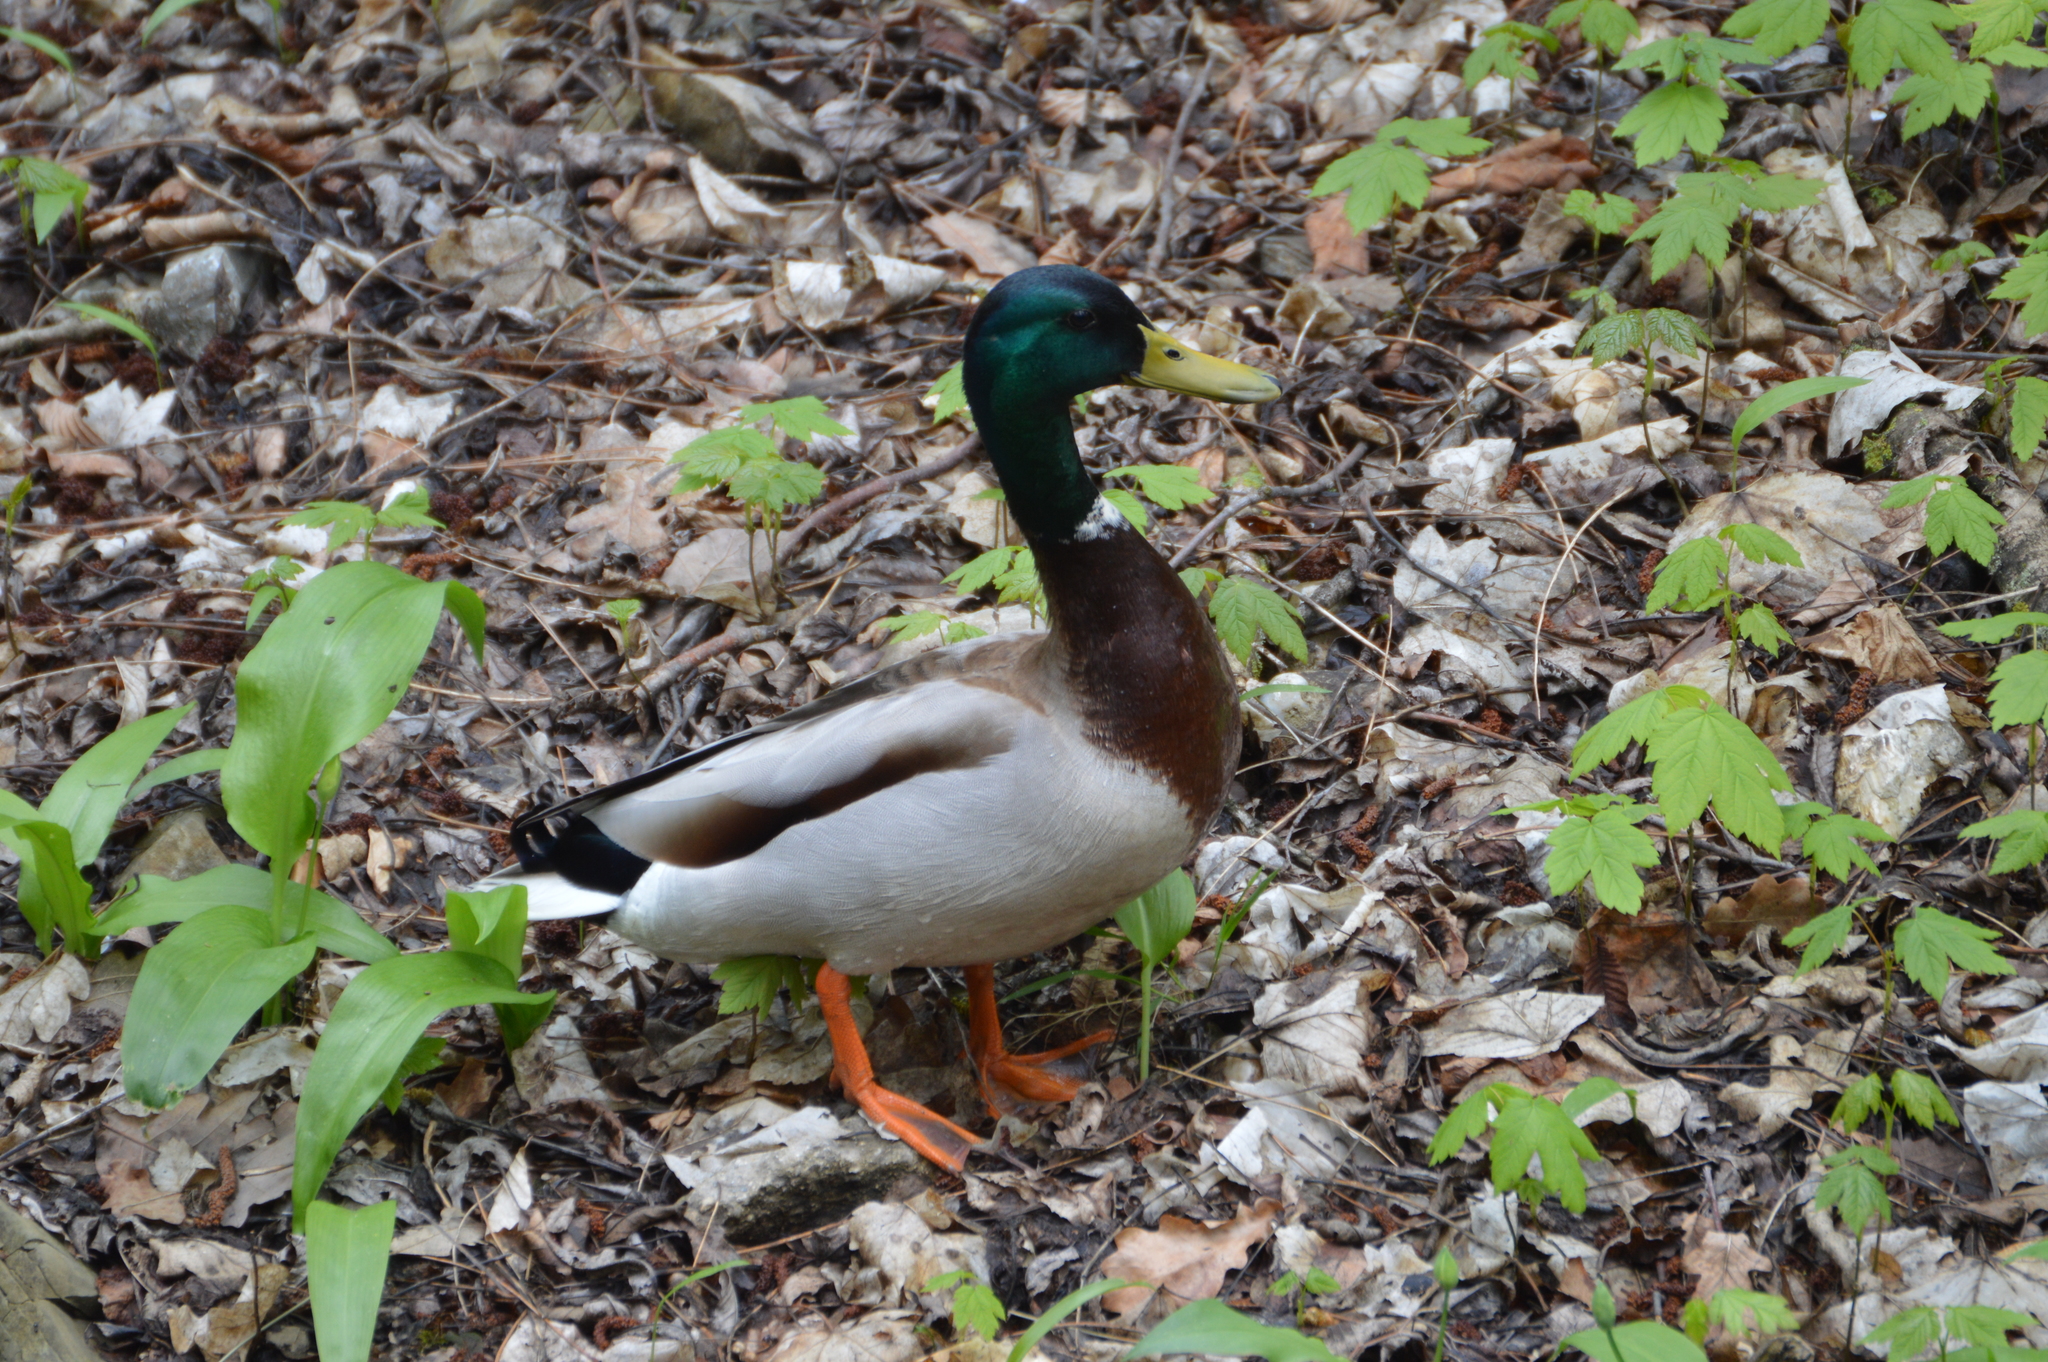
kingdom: Animalia
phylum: Chordata
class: Aves
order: Anseriformes
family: Anatidae
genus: Anas
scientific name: Anas platyrhynchos
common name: Mallard
